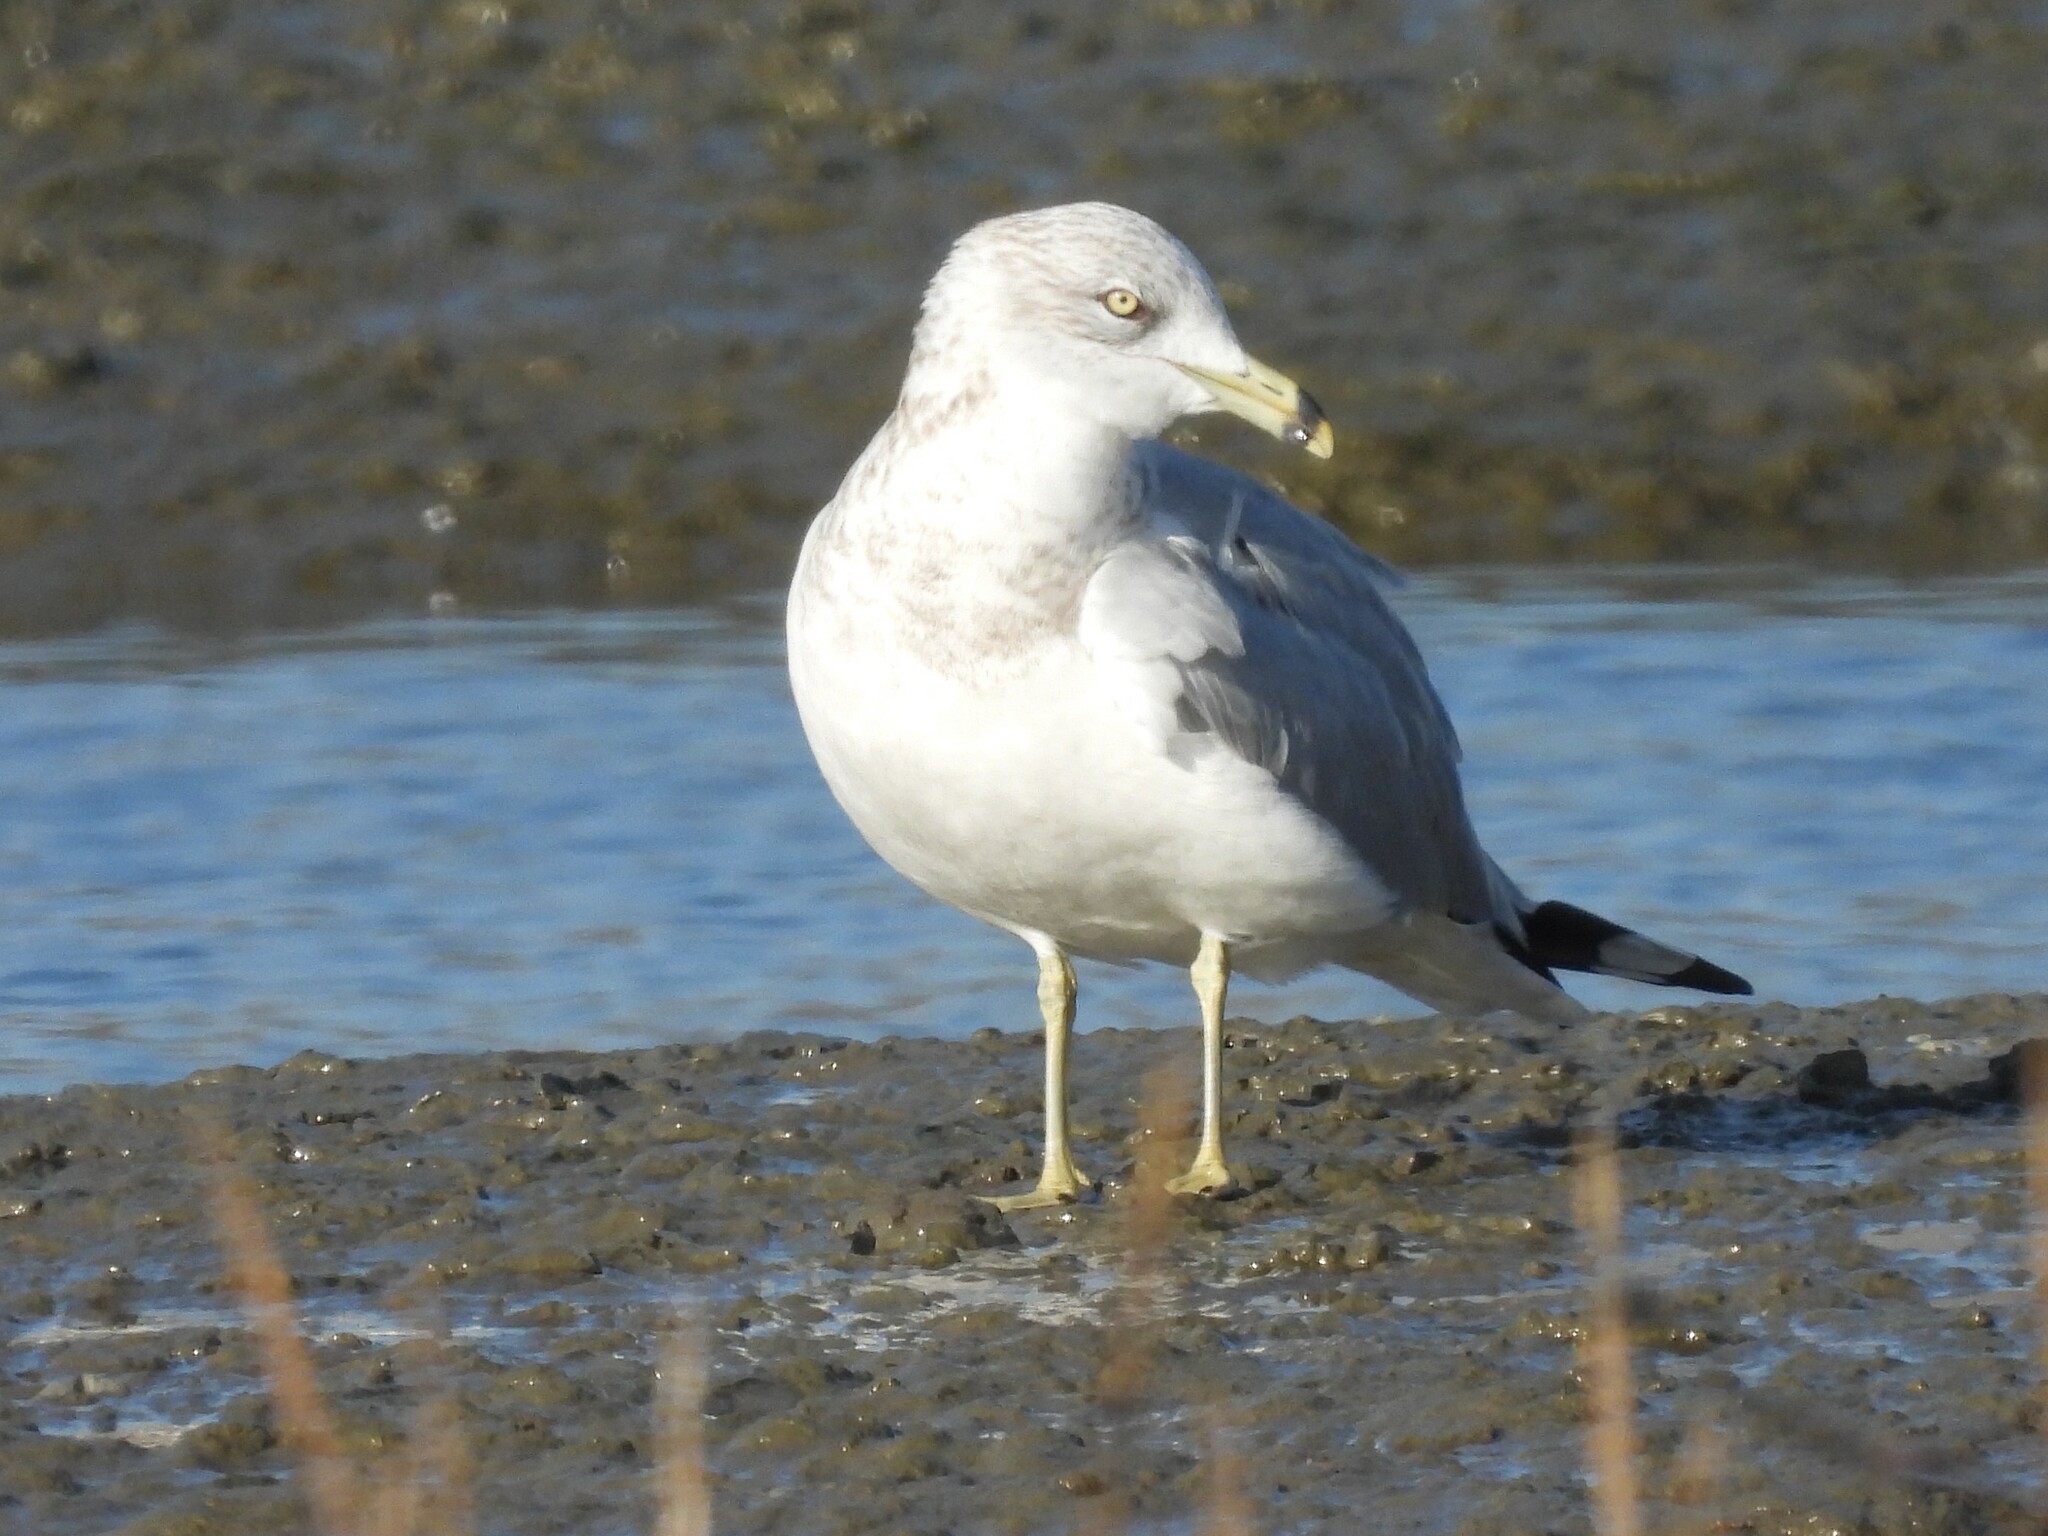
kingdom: Animalia
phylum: Chordata
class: Aves
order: Charadriiformes
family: Laridae
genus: Larus
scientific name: Larus delawarensis
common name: Ring-billed gull
